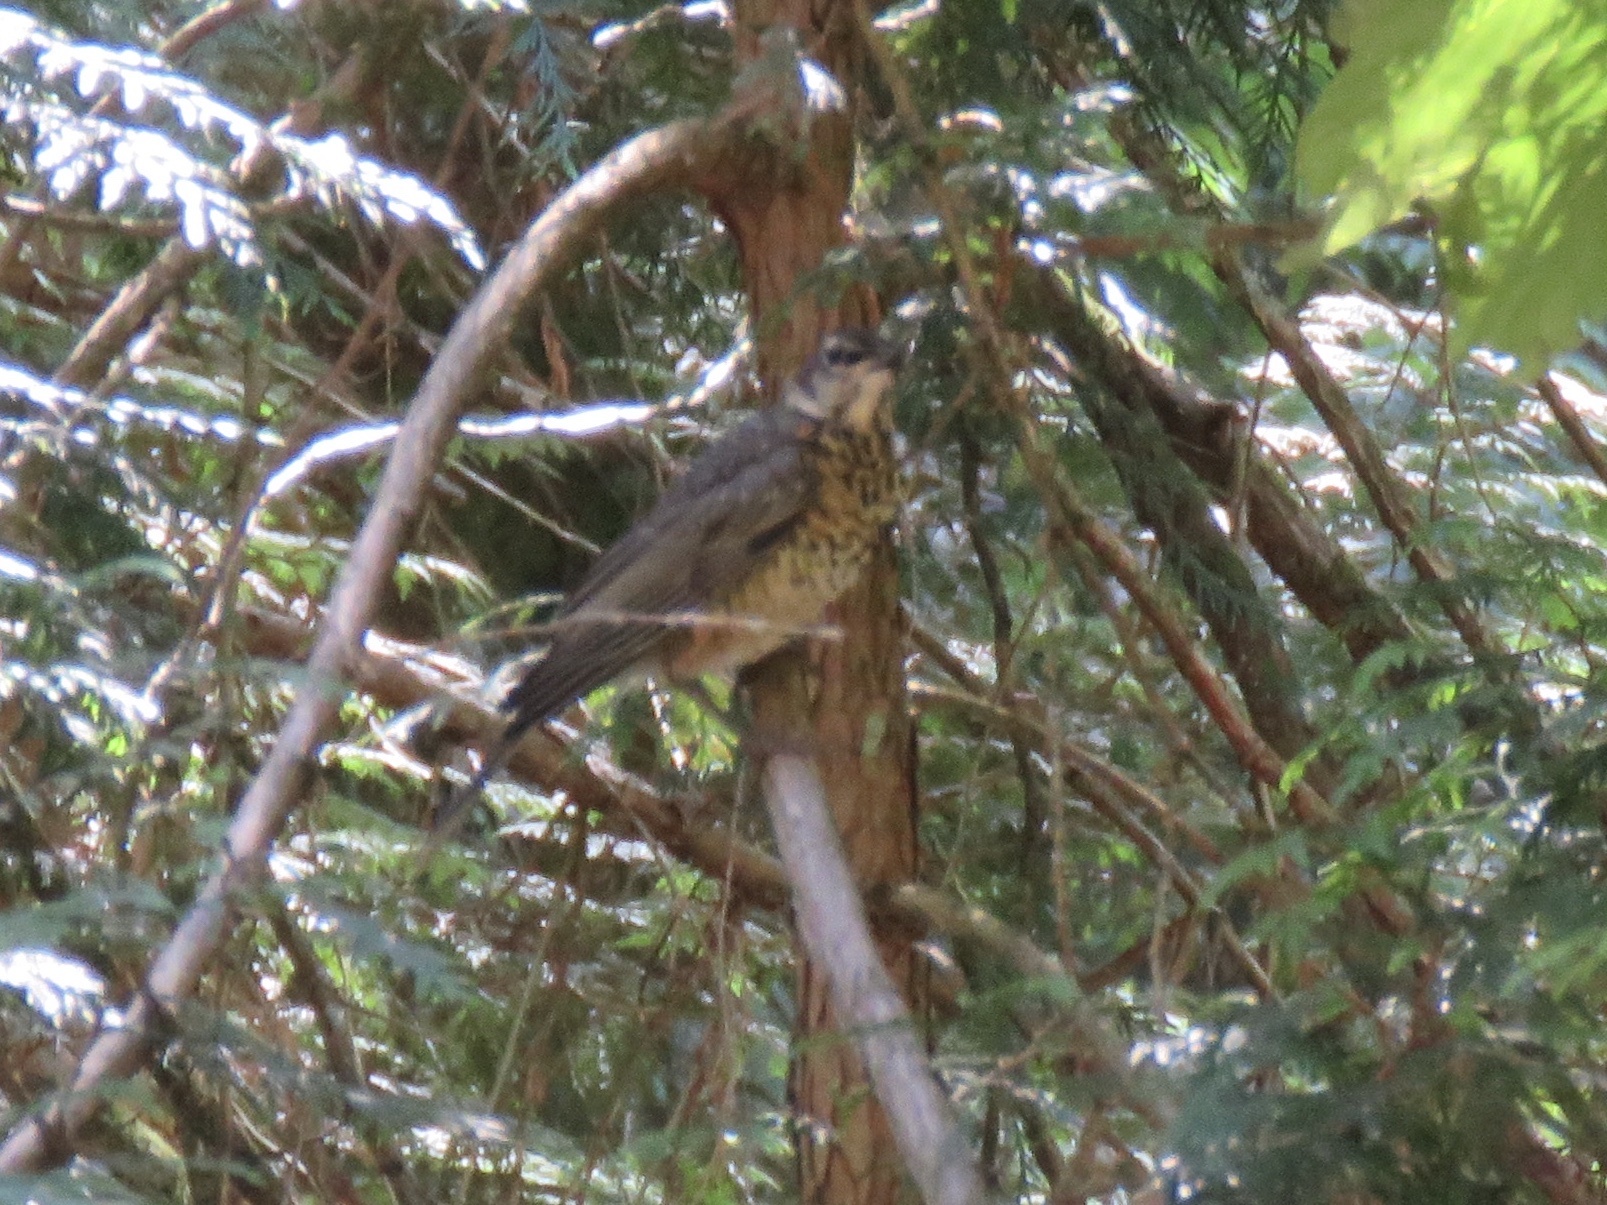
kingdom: Animalia
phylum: Chordata
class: Aves
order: Passeriformes
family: Turdidae
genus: Turdus
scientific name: Turdus migratorius
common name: American robin
